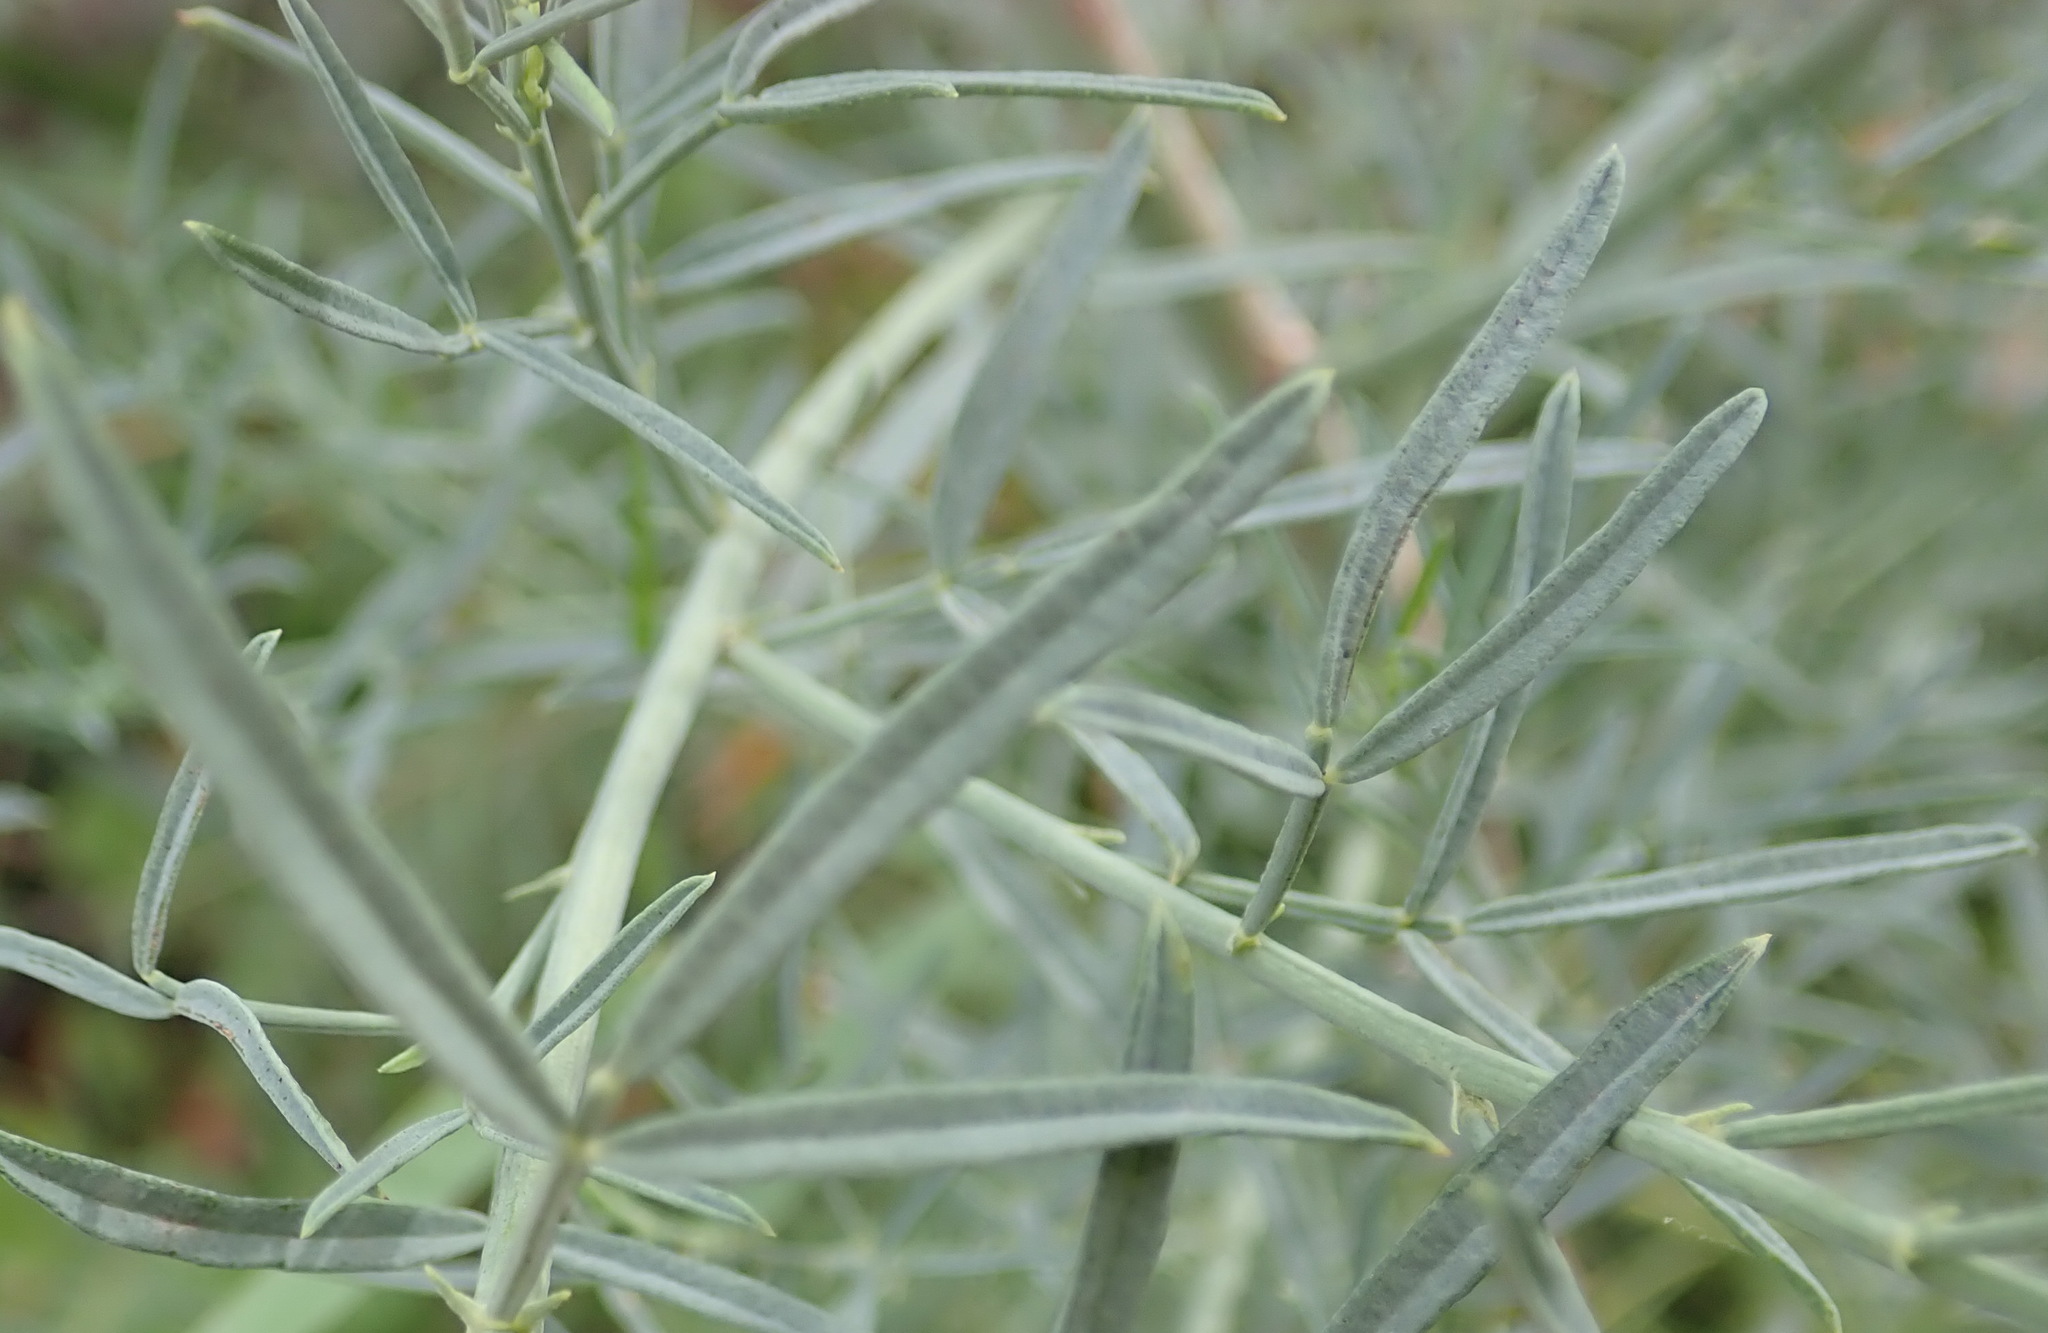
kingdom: Plantae
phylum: Tracheophyta
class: Magnoliopsida
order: Fabales
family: Fabaceae
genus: Psoralea
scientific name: Psoralea axillaris
